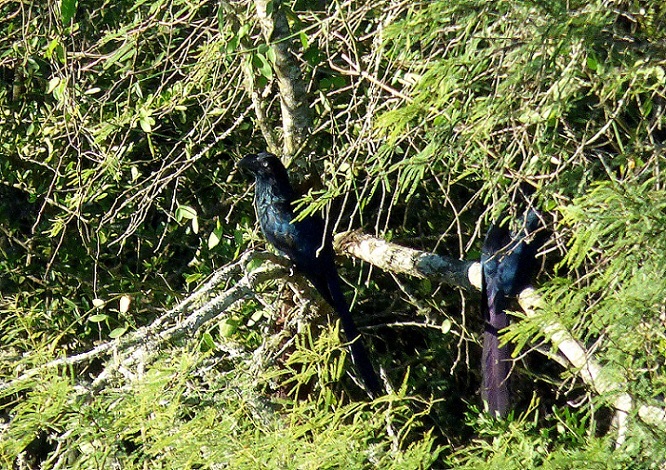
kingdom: Animalia
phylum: Chordata
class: Aves
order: Cuculiformes
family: Cuculidae
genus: Crotophaga
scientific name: Crotophaga major
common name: Greater ani
